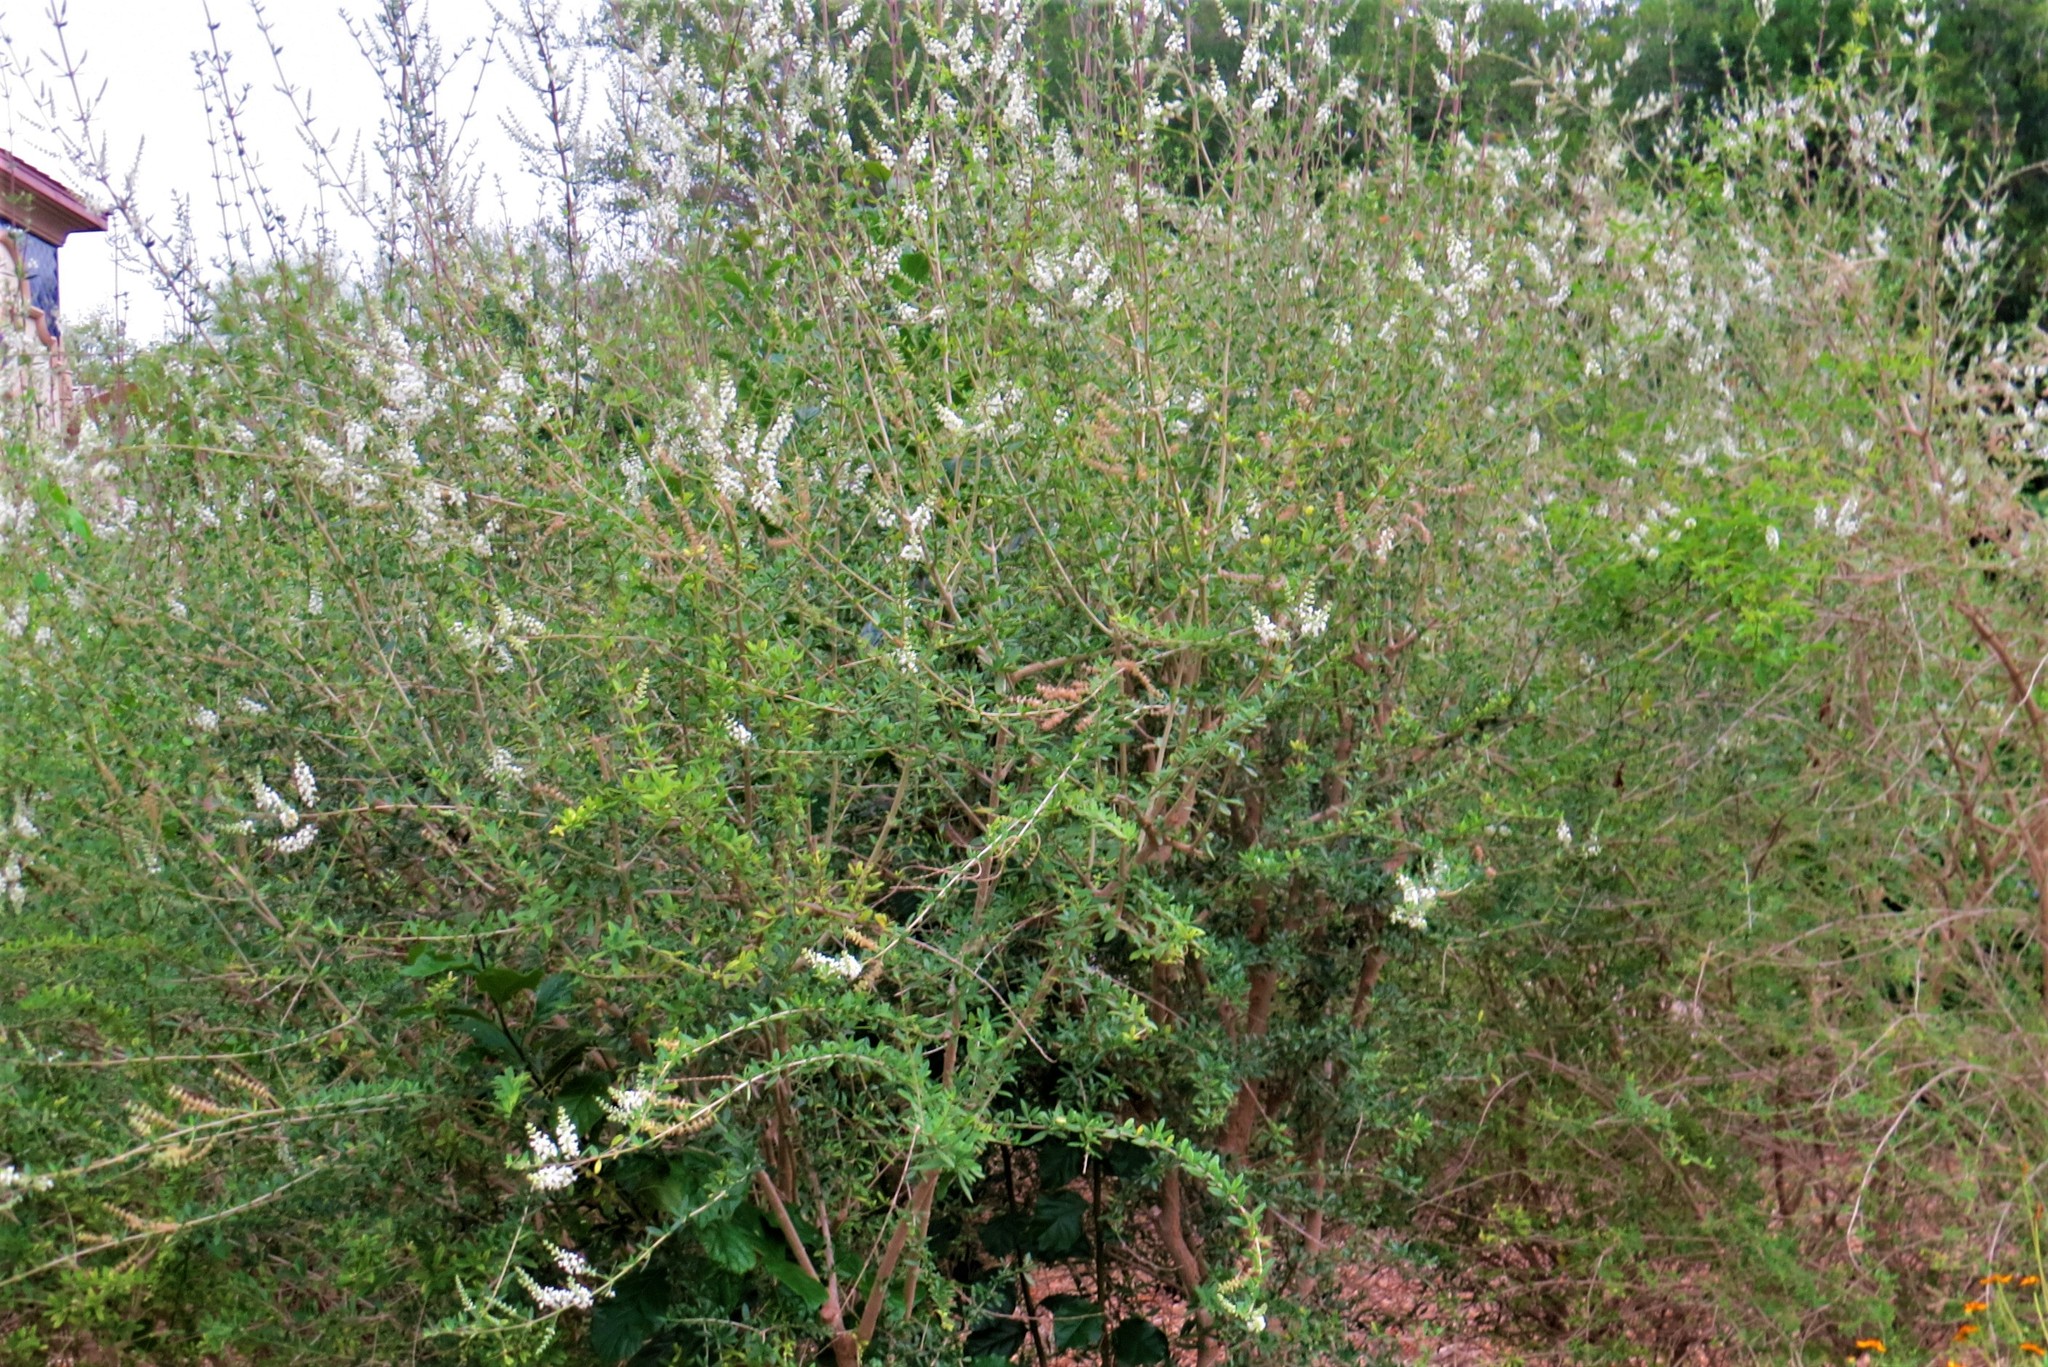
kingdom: Plantae
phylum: Tracheophyta
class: Magnoliopsida
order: Lamiales
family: Verbenaceae
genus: Aloysia
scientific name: Aloysia gratissima
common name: Common bee-brush
